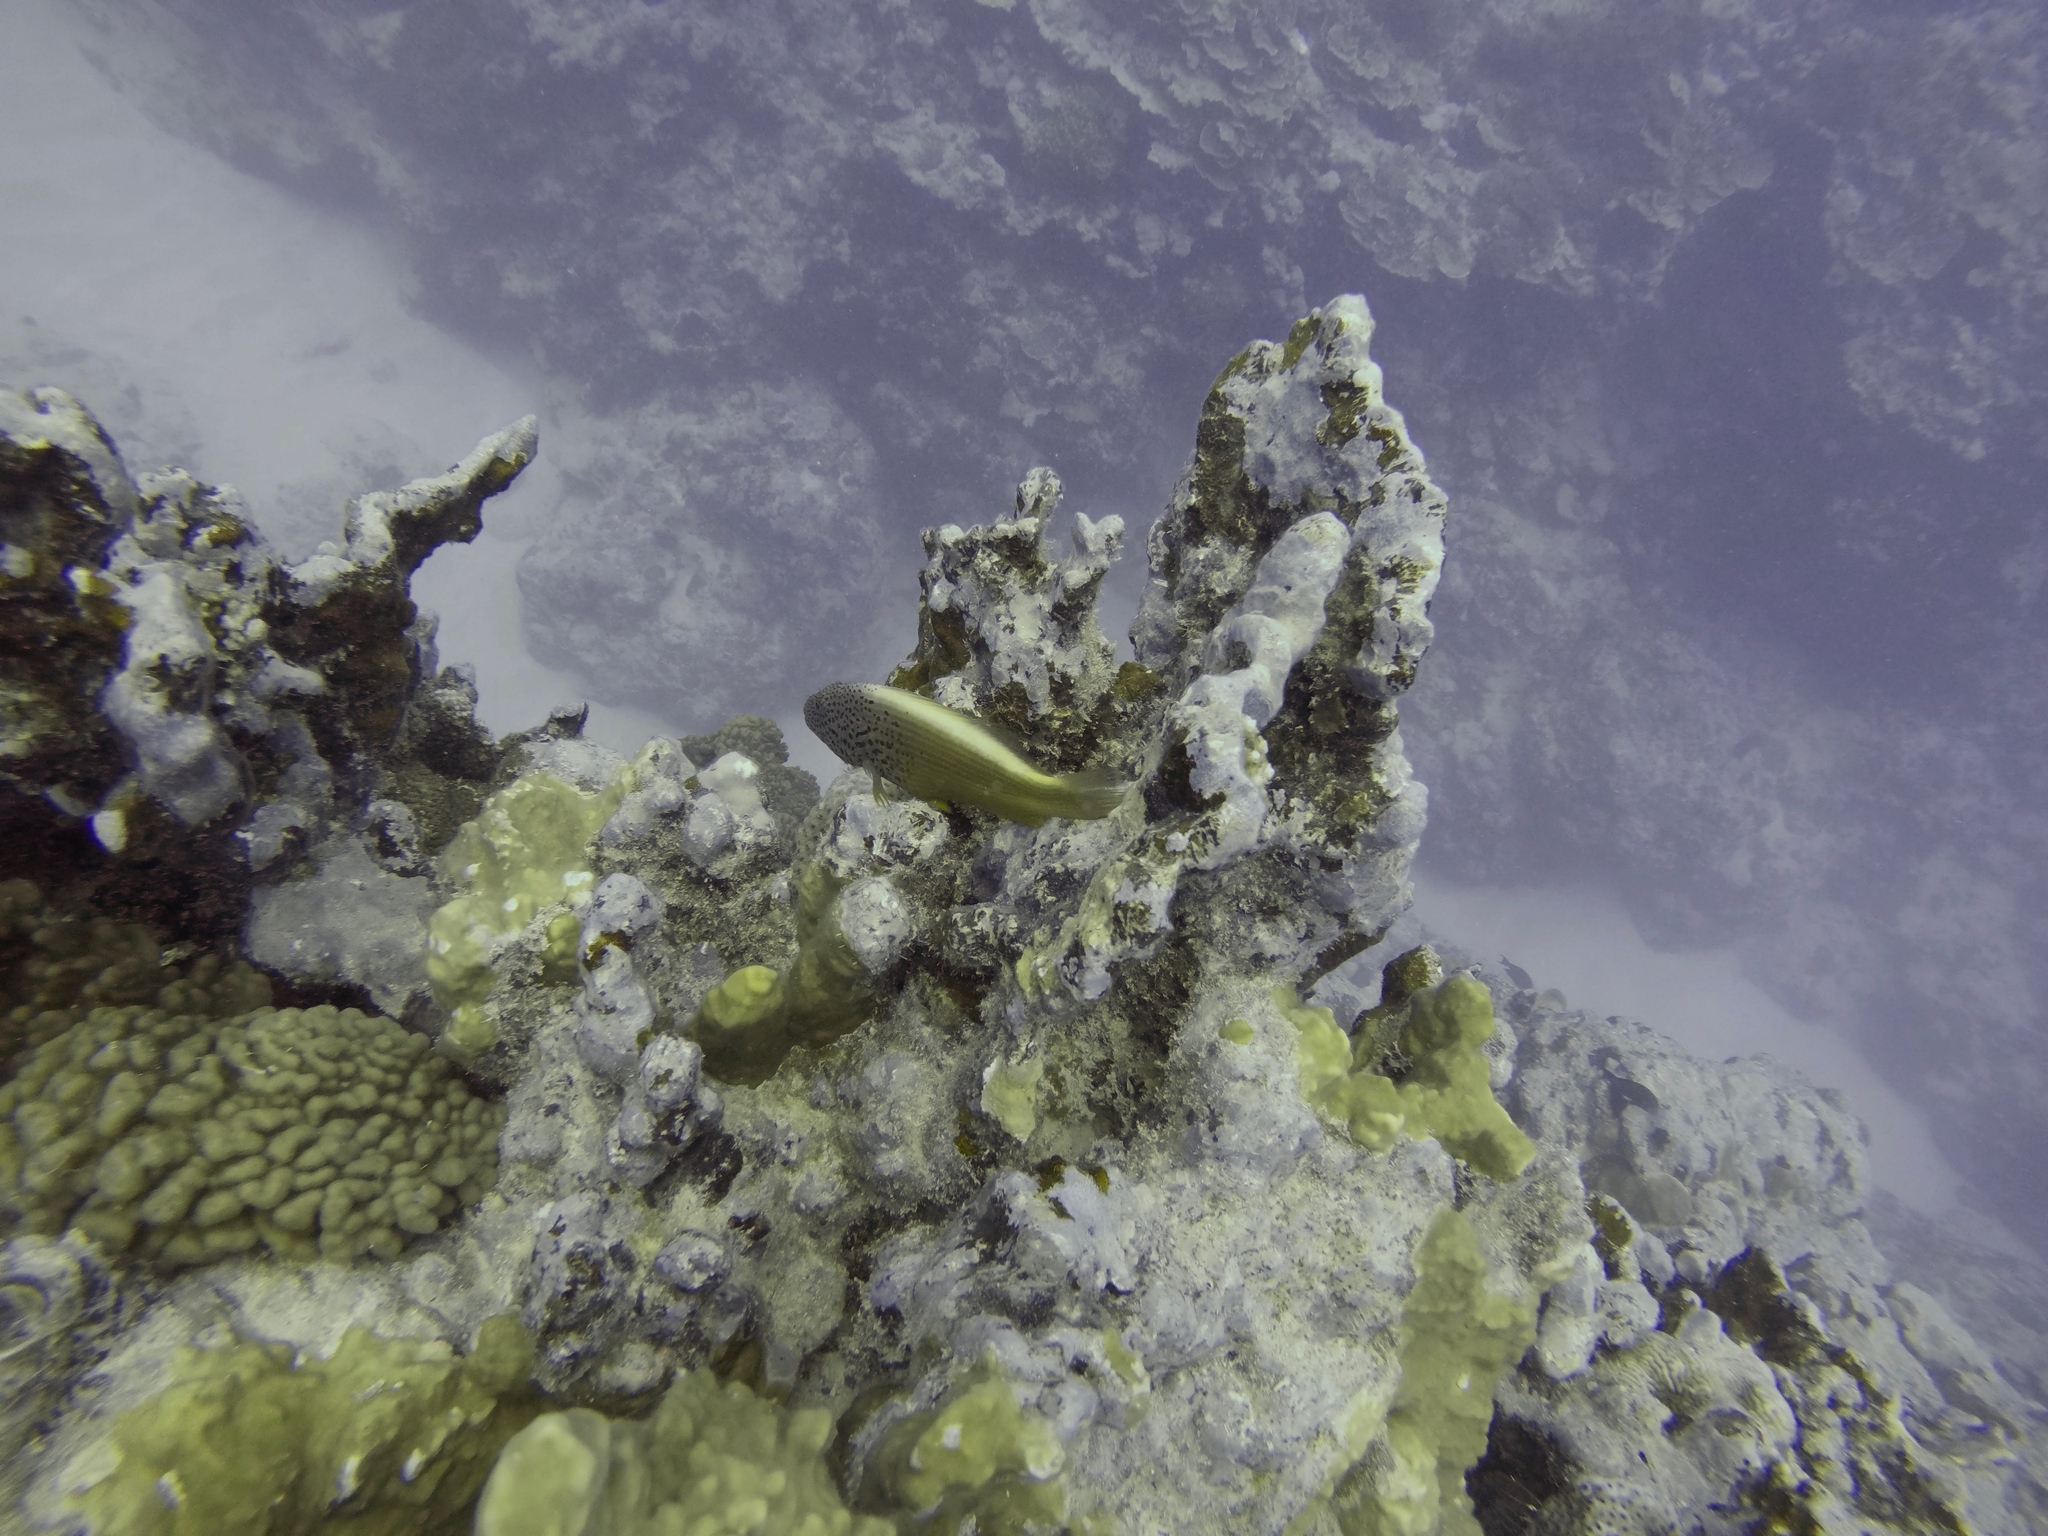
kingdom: Animalia
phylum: Chordata
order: Perciformes
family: Cirrhitidae
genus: Paracirrhites
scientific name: Paracirrhites forsteri
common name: Freckled hawkfish
